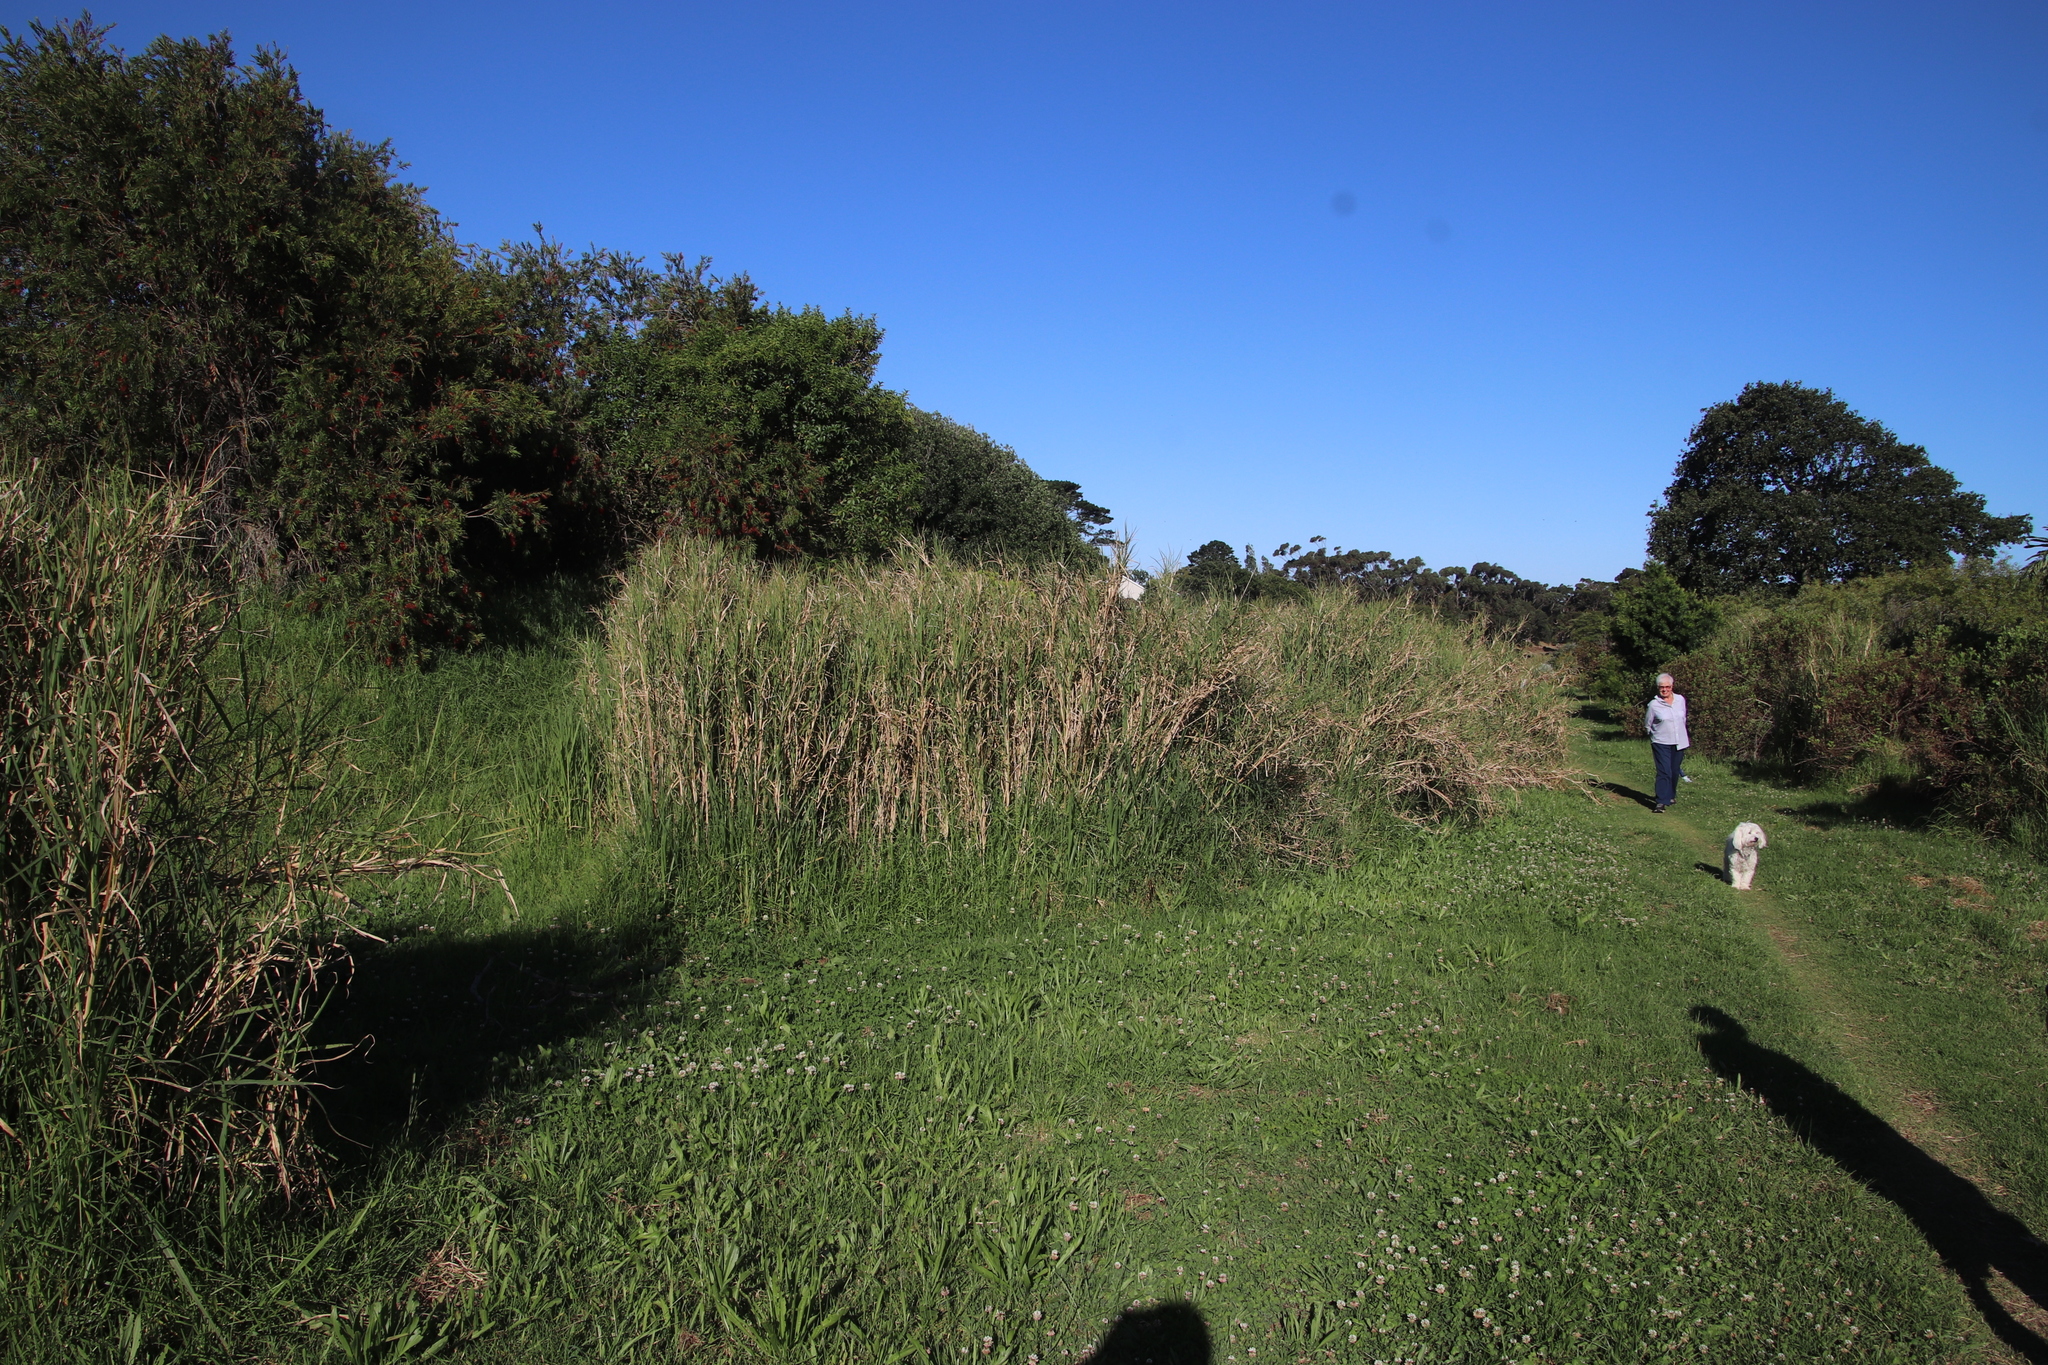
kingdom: Plantae
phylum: Tracheophyta
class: Liliopsida
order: Poales
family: Poaceae
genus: Echinochloa
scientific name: Echinochloa pyramidalis
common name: Antelope grass
